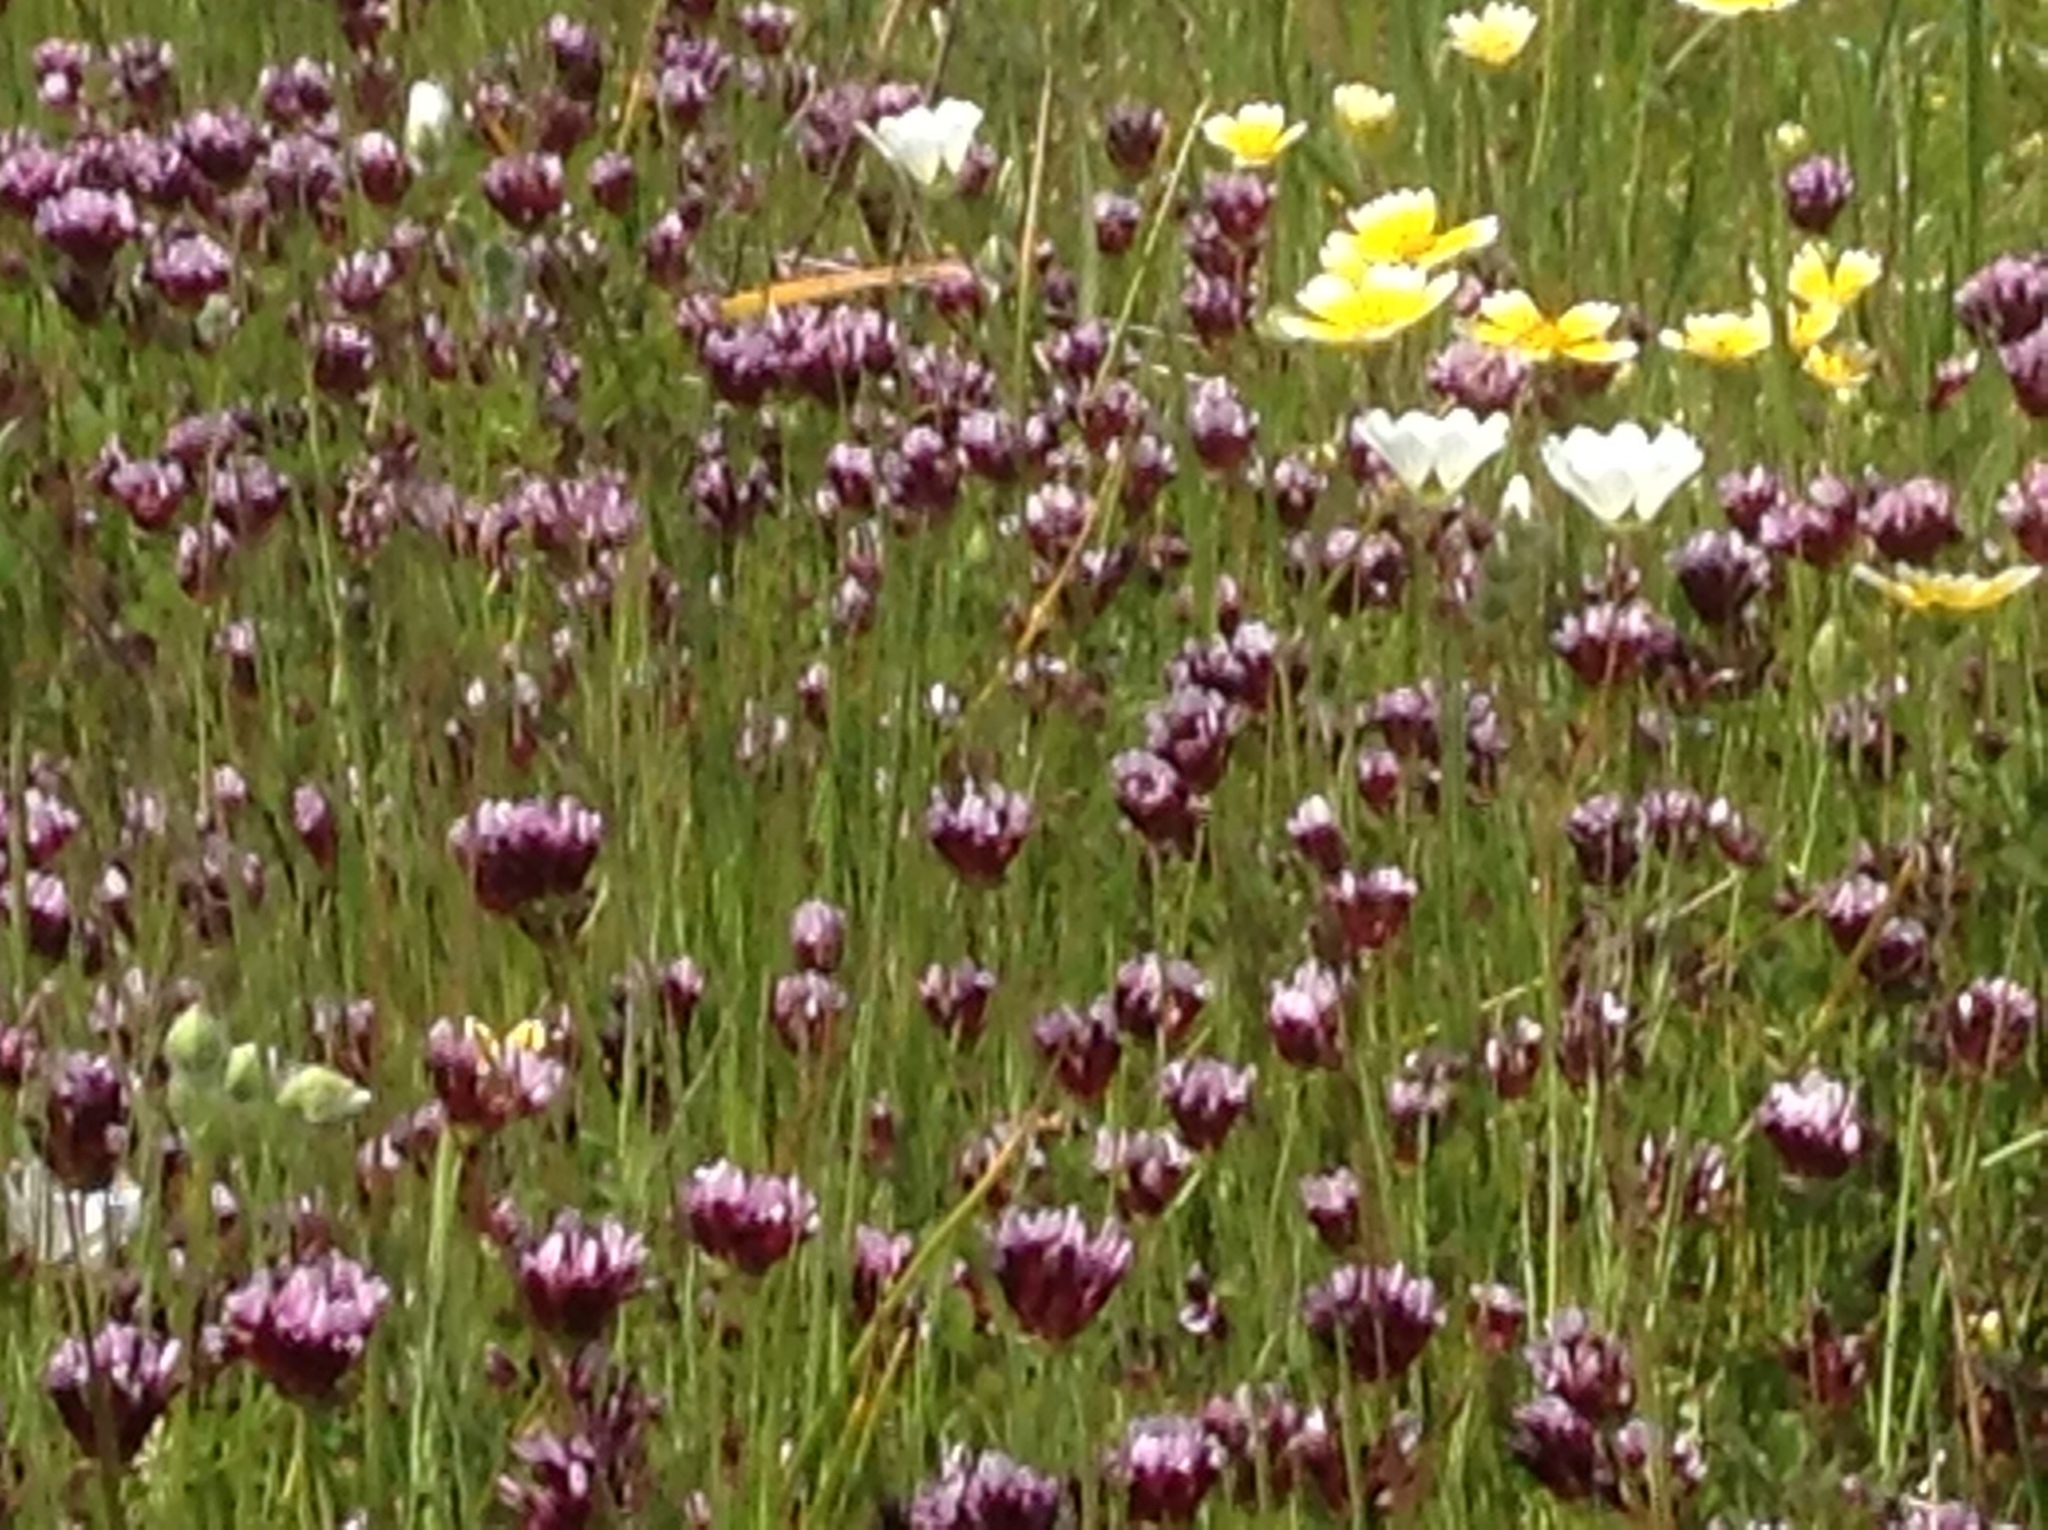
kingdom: Plantae
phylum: Tracheophyta
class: Magnoliopsida
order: Fabales
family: Fabaceae
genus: Trifolium
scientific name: Trifolium variegatum
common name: Whitetip clover
